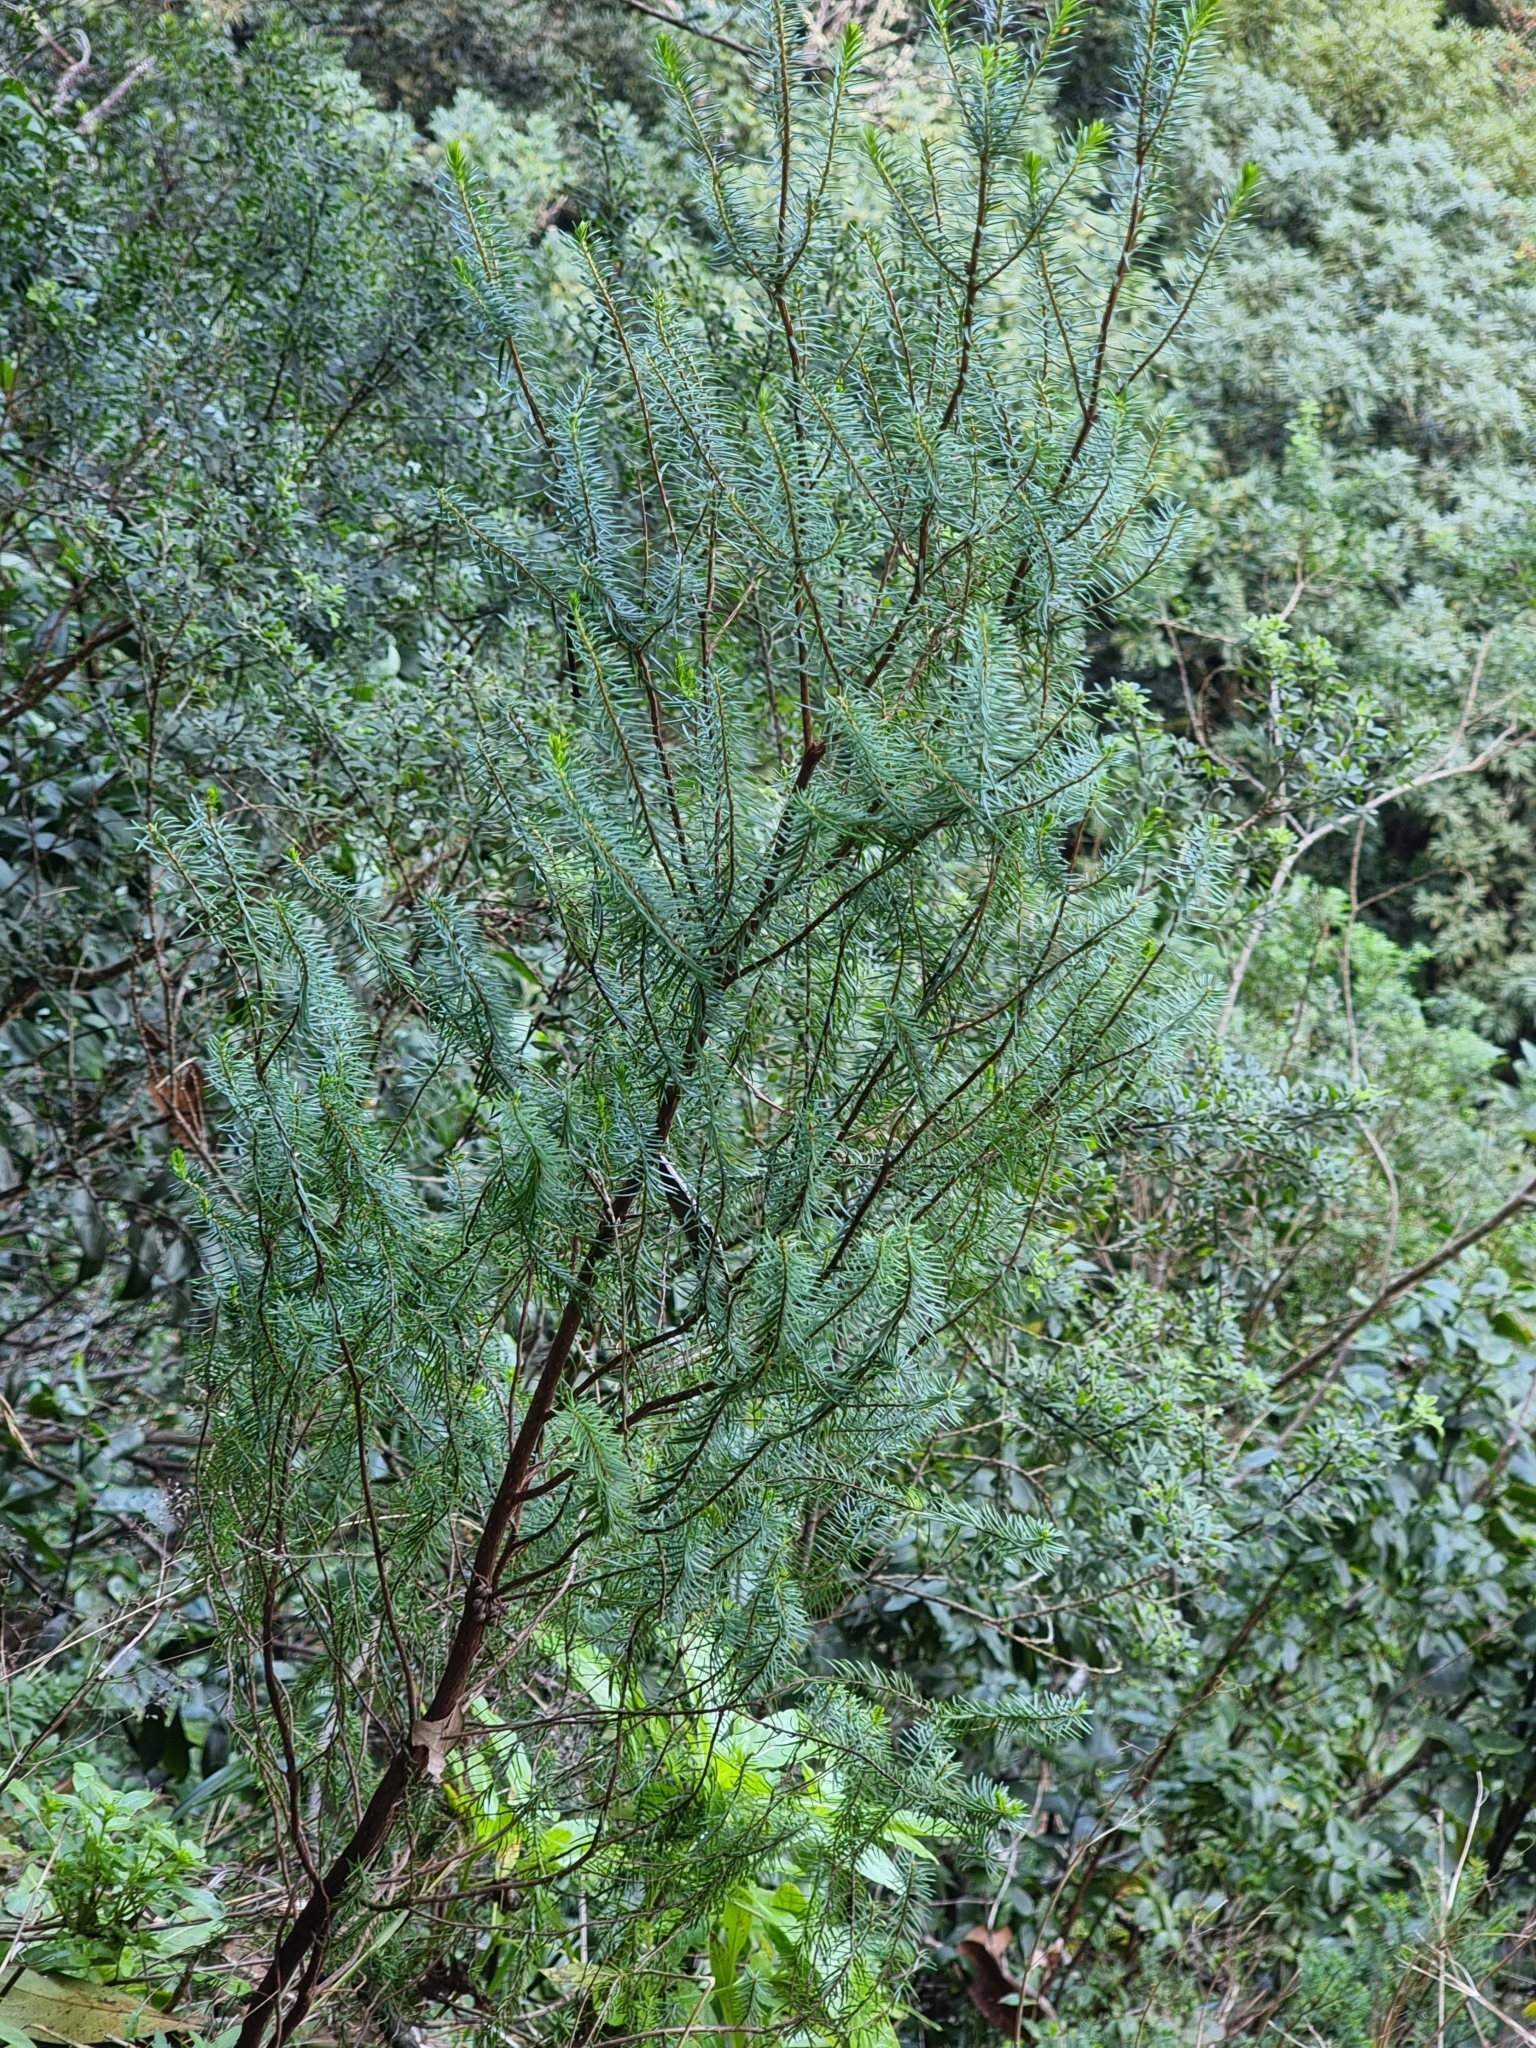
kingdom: Plantae
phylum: Tracheophyta
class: Magnoliopsida
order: Ericales
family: Ericaceae
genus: Erica
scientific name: Erica platycodon
